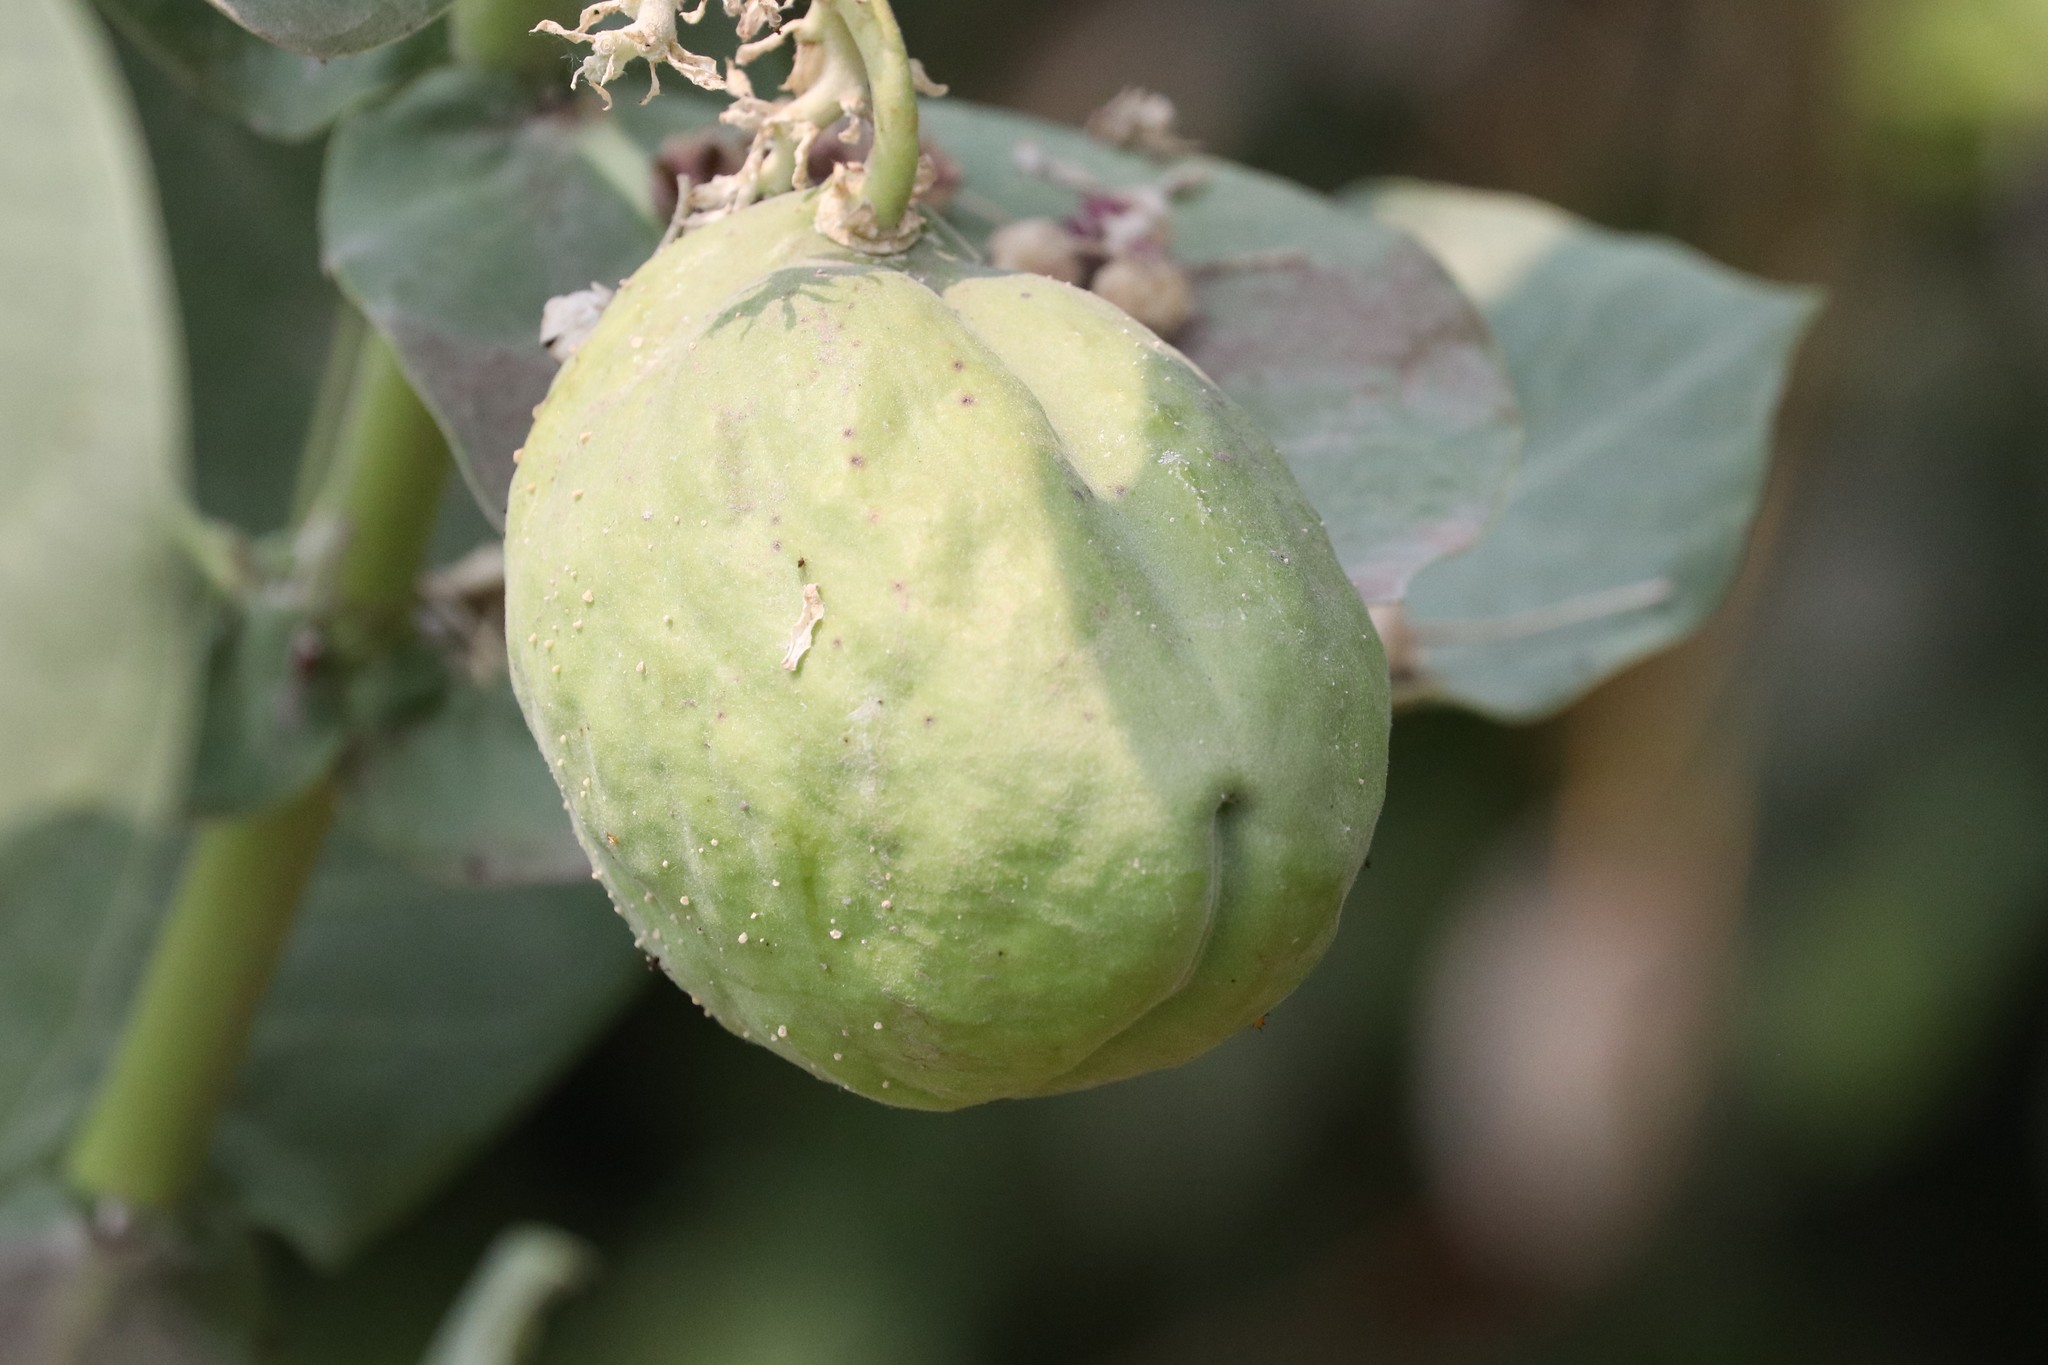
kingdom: Plantae
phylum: Tracheophyta
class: Magnoliopsida
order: Gentianales
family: Apocynaceae
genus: Calotropis
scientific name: Calotropis procera
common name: Roostertree
